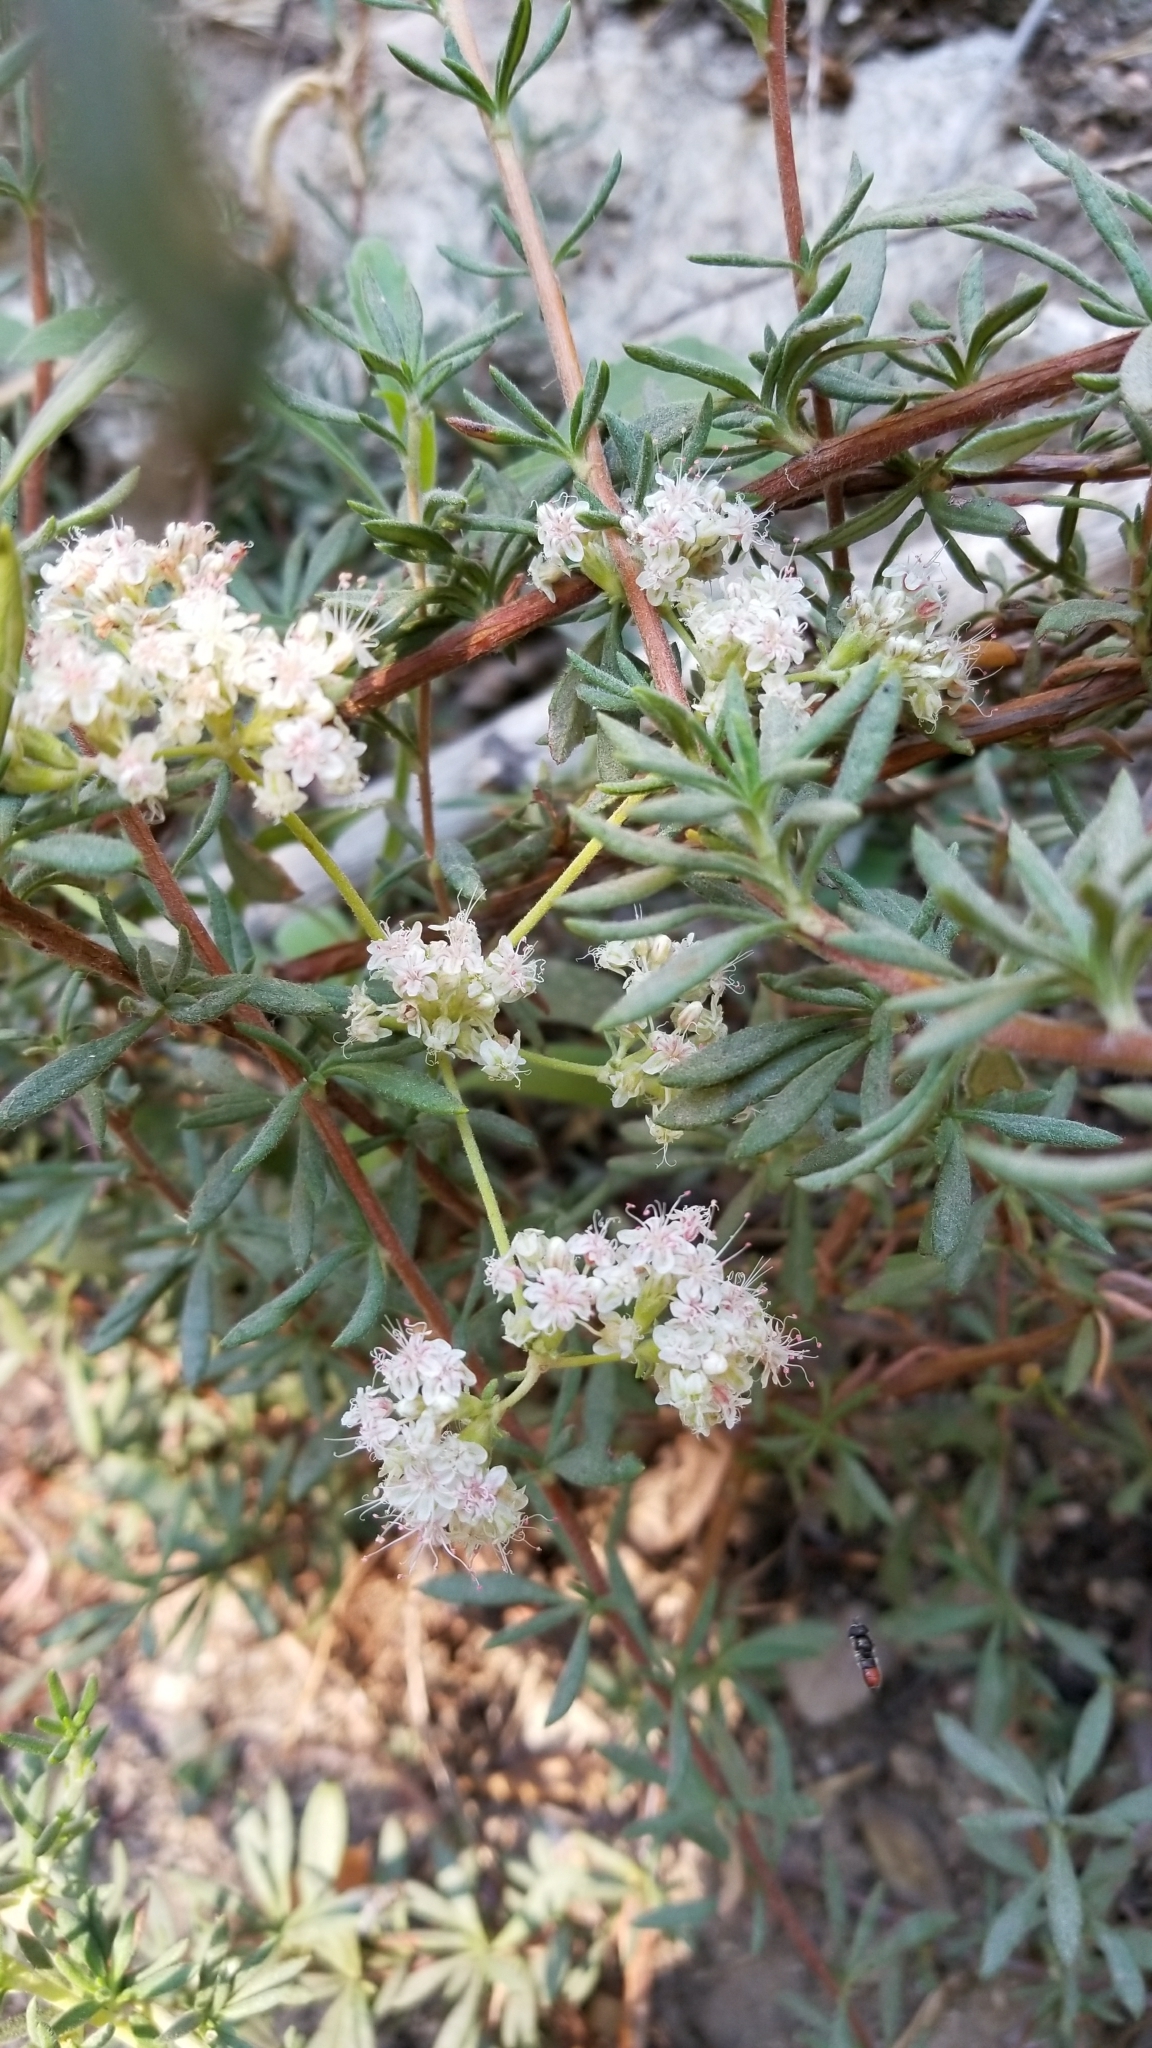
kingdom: Plantae
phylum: Tracheophyta
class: Magnoliopsida
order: Caryophyllales
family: Polygonaceae
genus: Eriogonum
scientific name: Eriogonum fasciculatum
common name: California wild buckwheat
